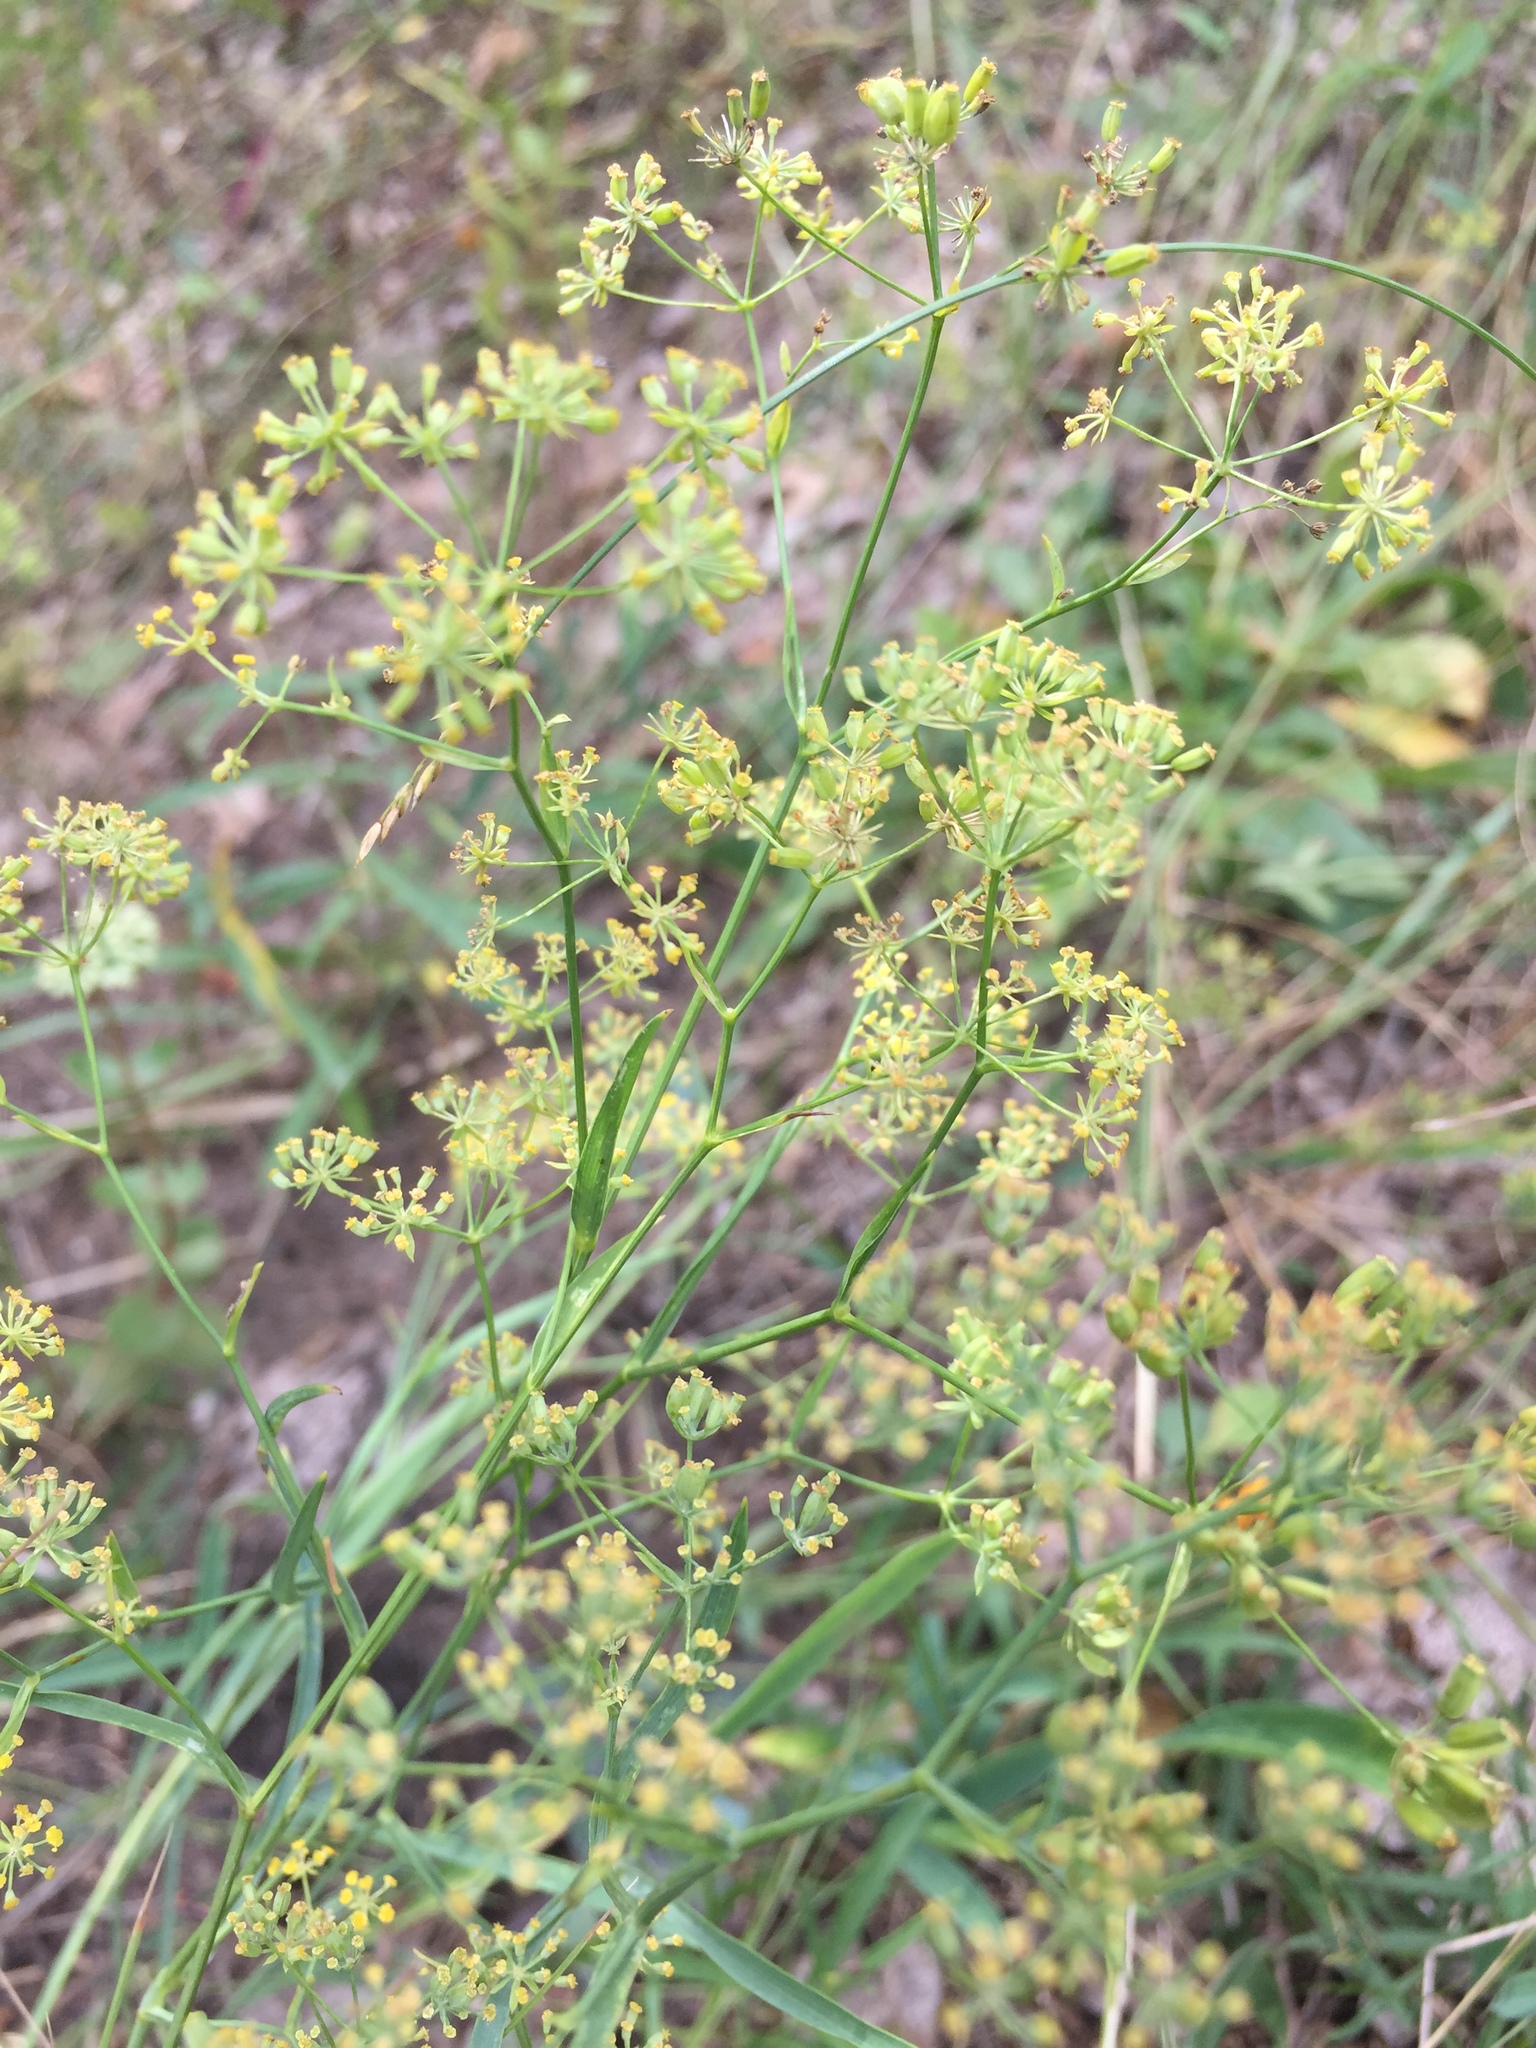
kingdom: Plantae
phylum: Tracheophyta
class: Magnoliopsida
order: Apiales
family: Apiaceae
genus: Bupleurum
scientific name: Bupleurum falcatum
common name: Sickle-leaved hare's-ear
